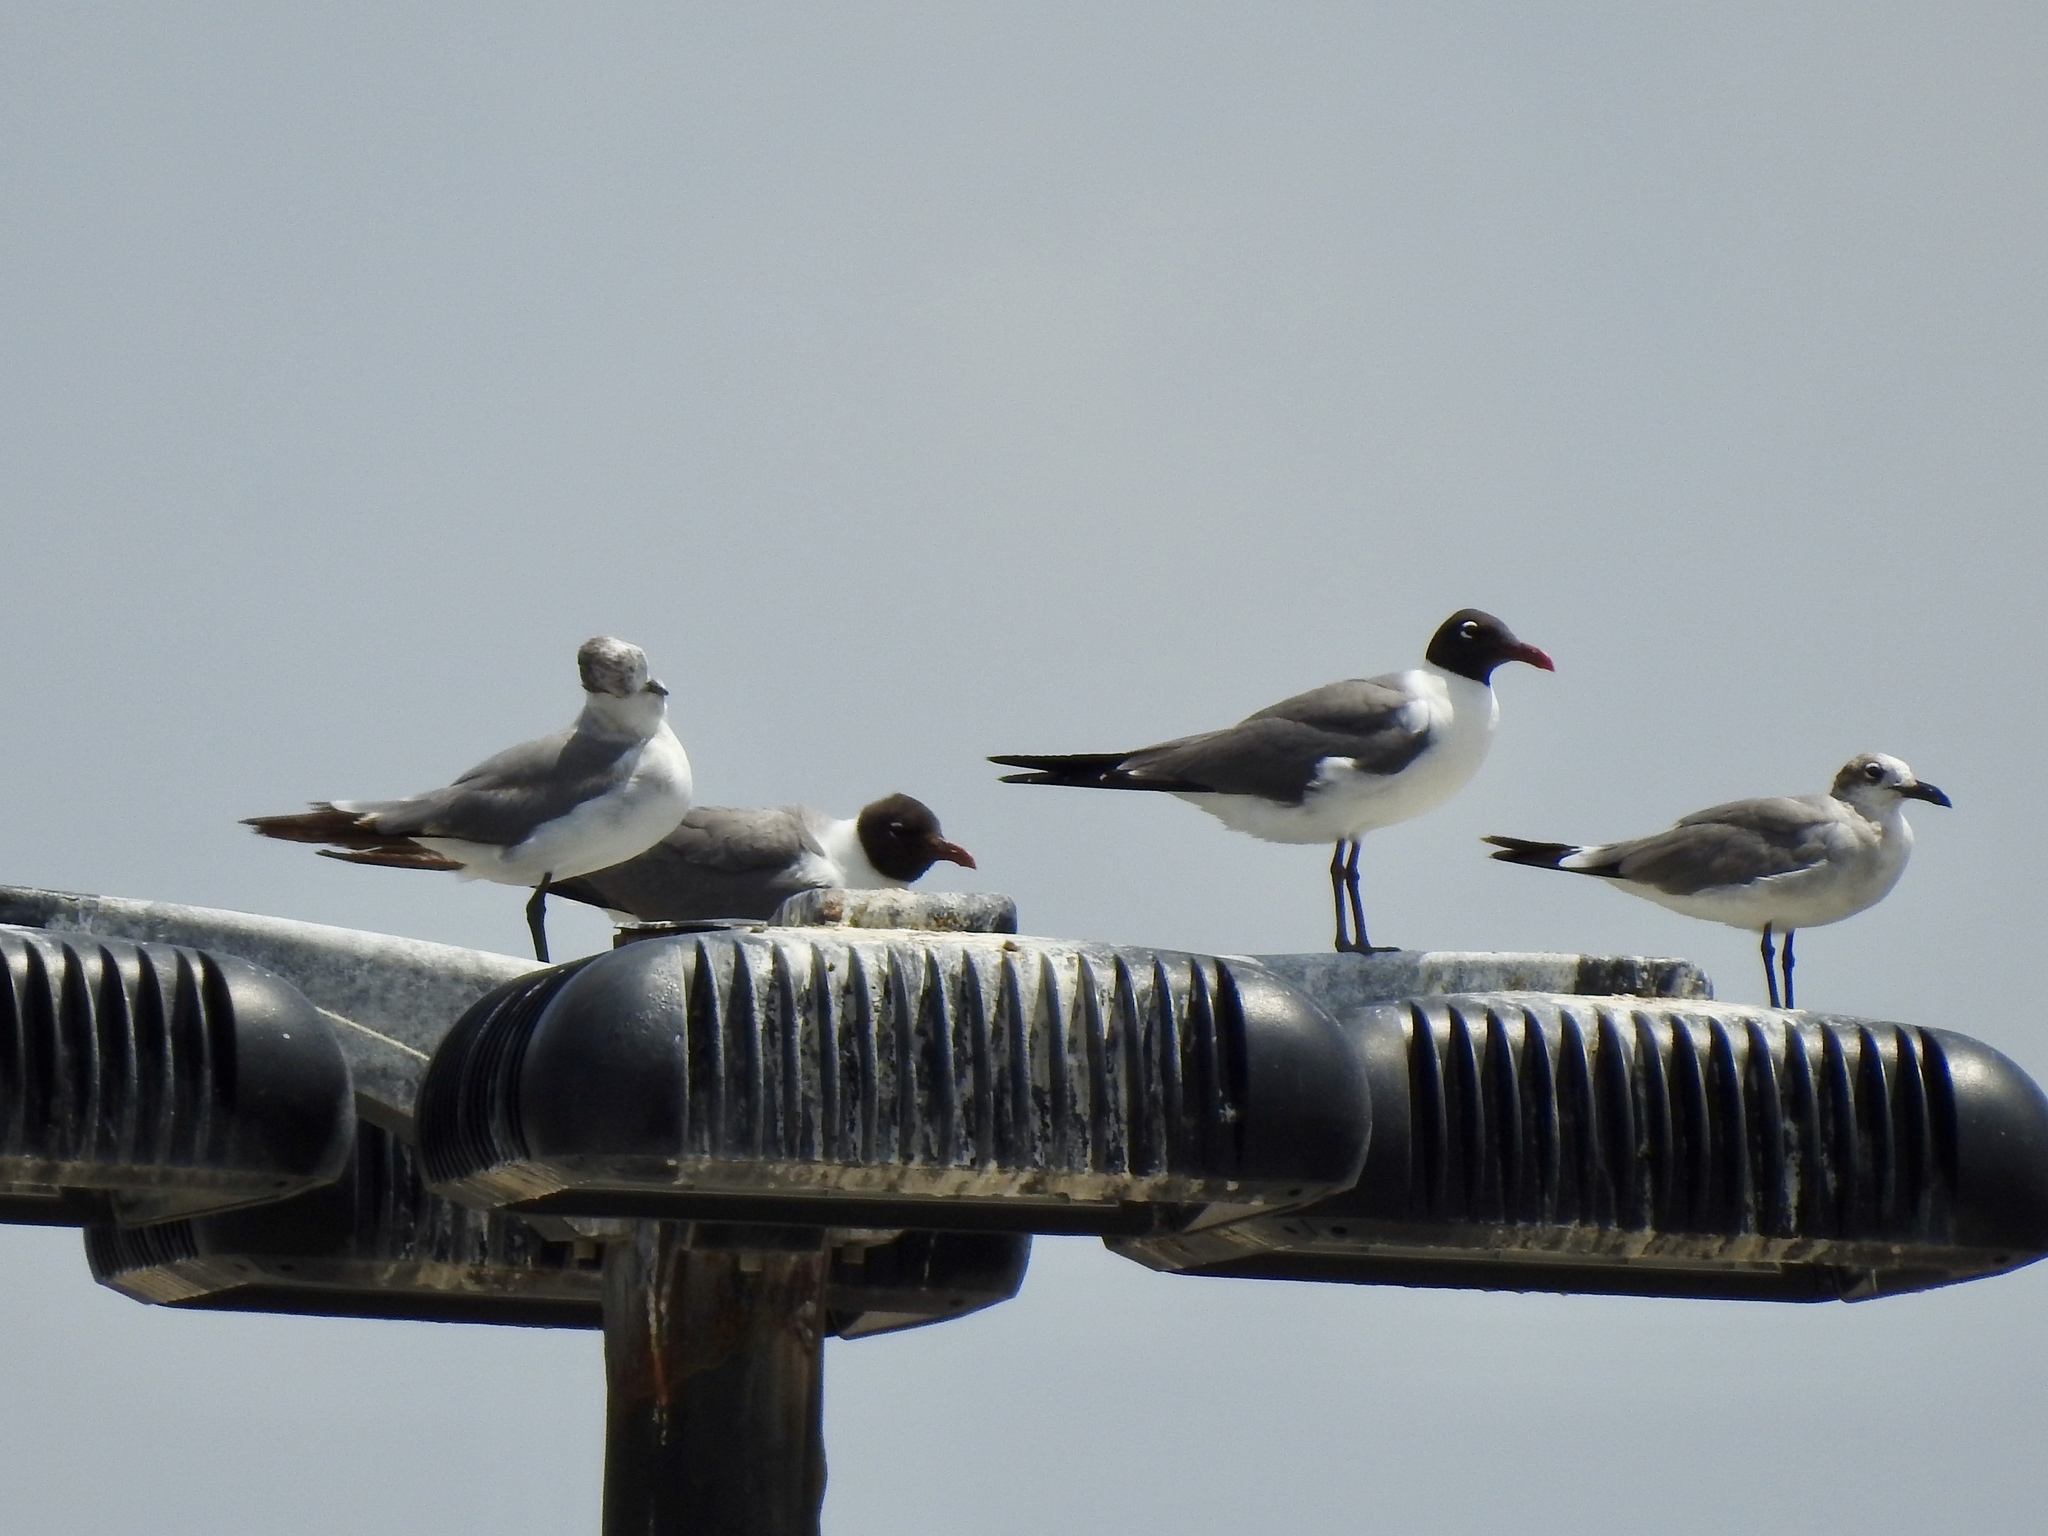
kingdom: Animalia
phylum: Chordata
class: Aves
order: Charadriiformes
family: Laridae
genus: Leucophaeus
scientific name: Leucophaeus atricilla
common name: Laughing gull
